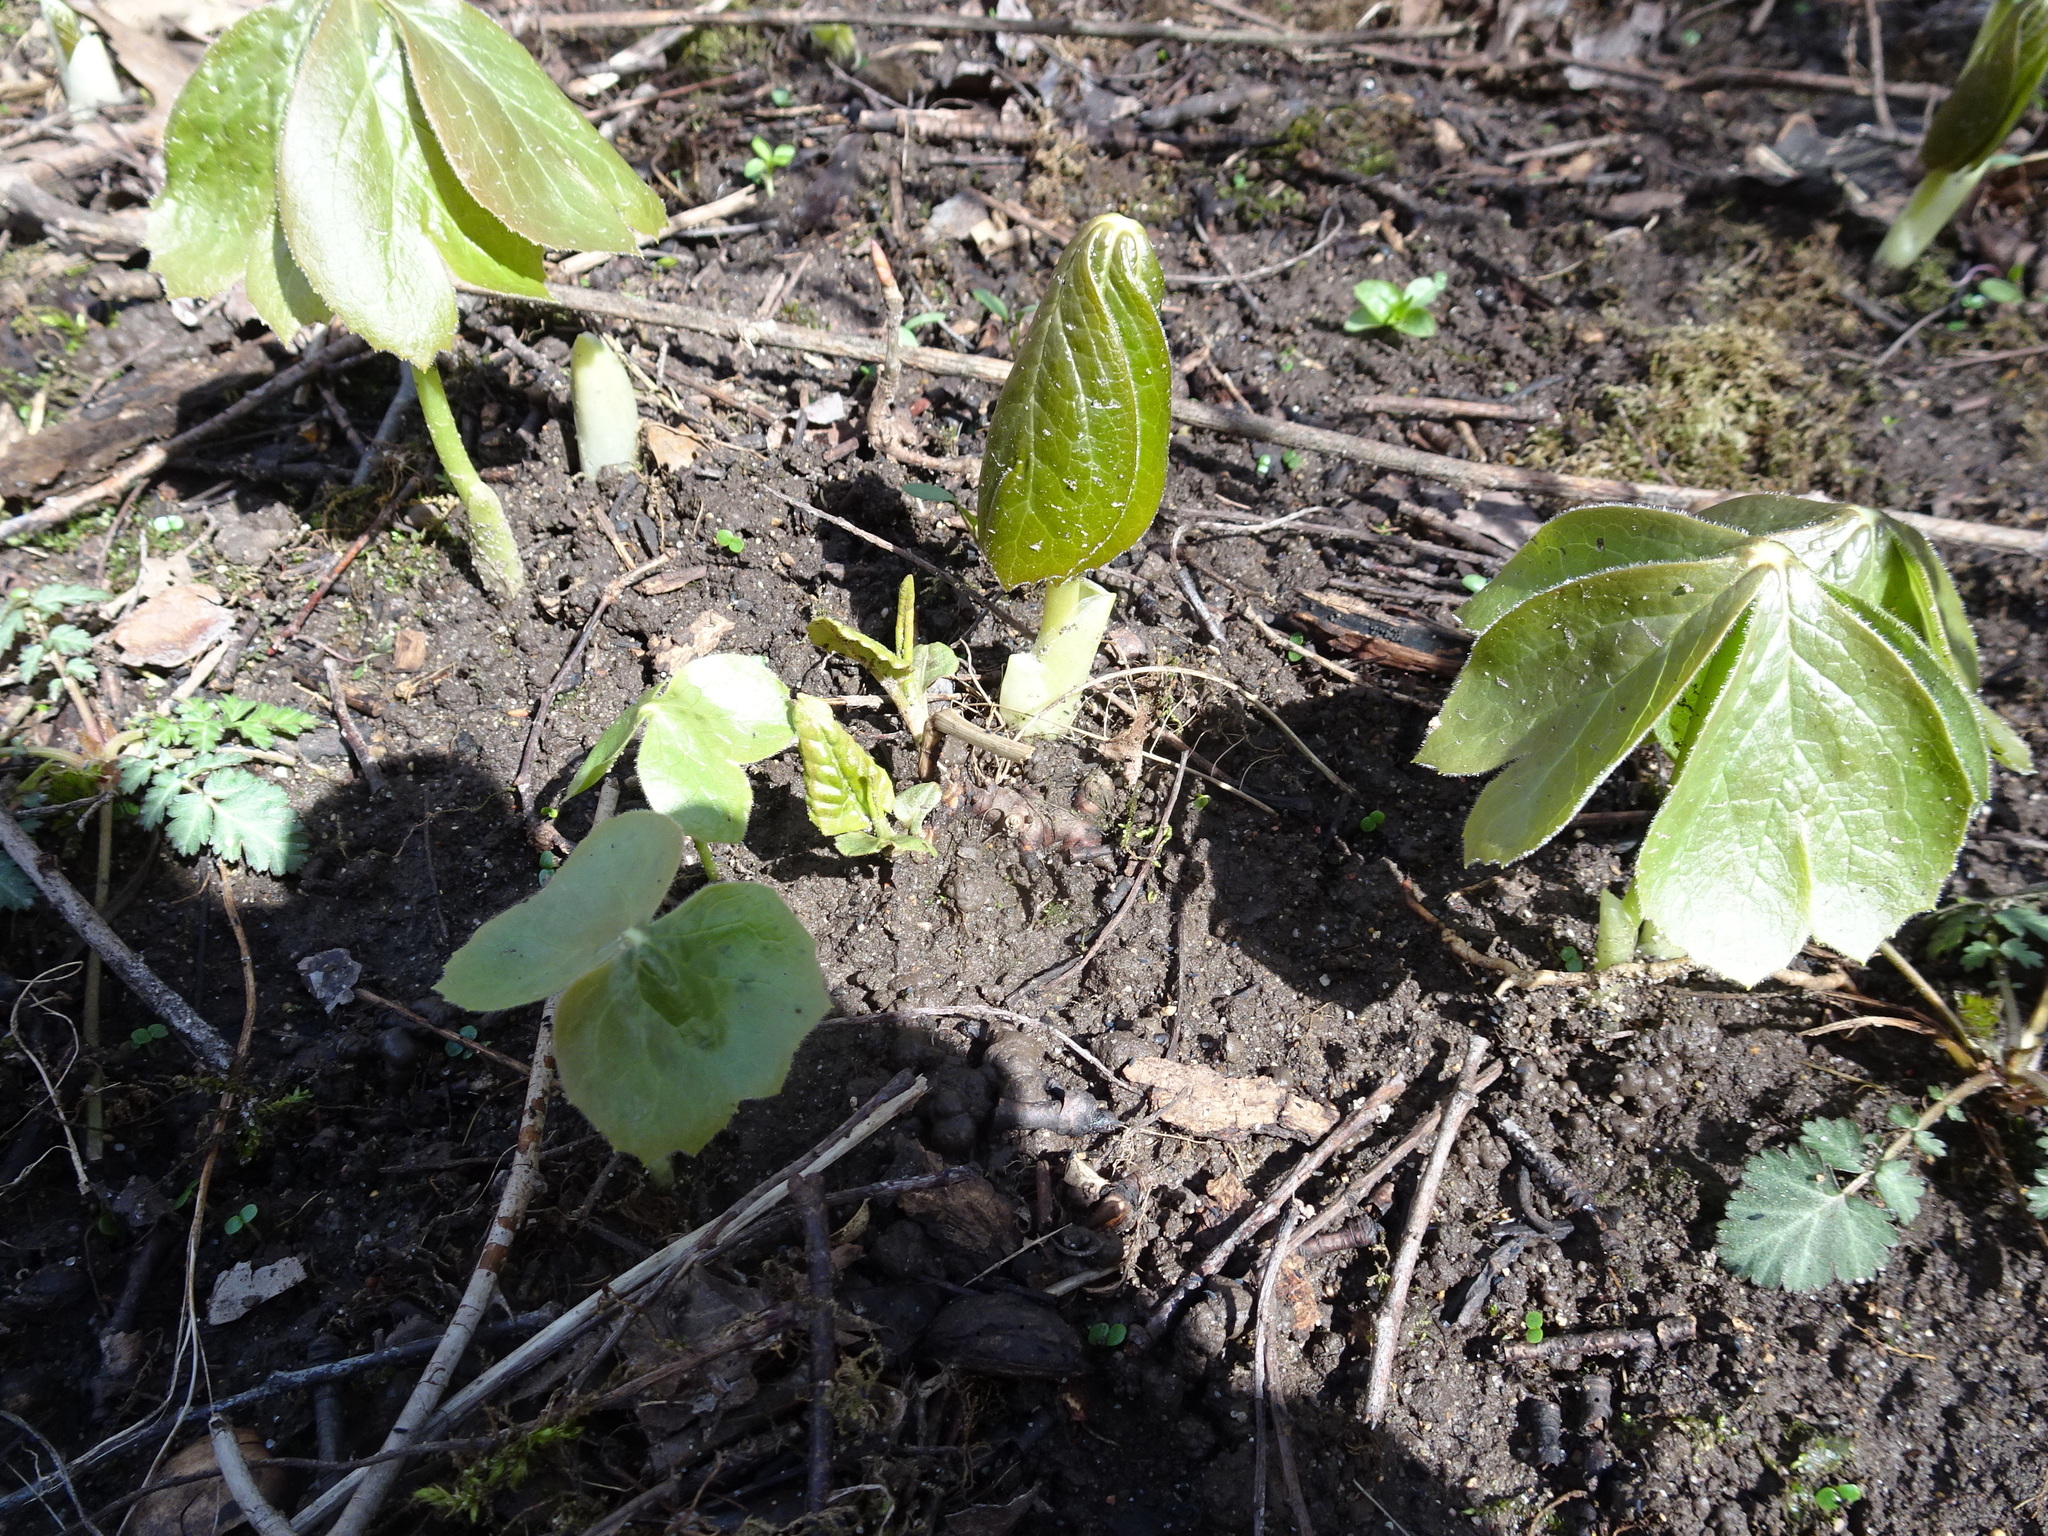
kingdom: Plantae
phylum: Tracheophyta
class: Magnoliopsida
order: Ranunculales
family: Berberidaceae
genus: Podophyllum
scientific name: Podophyllum peltatum
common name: Wild mandrake
